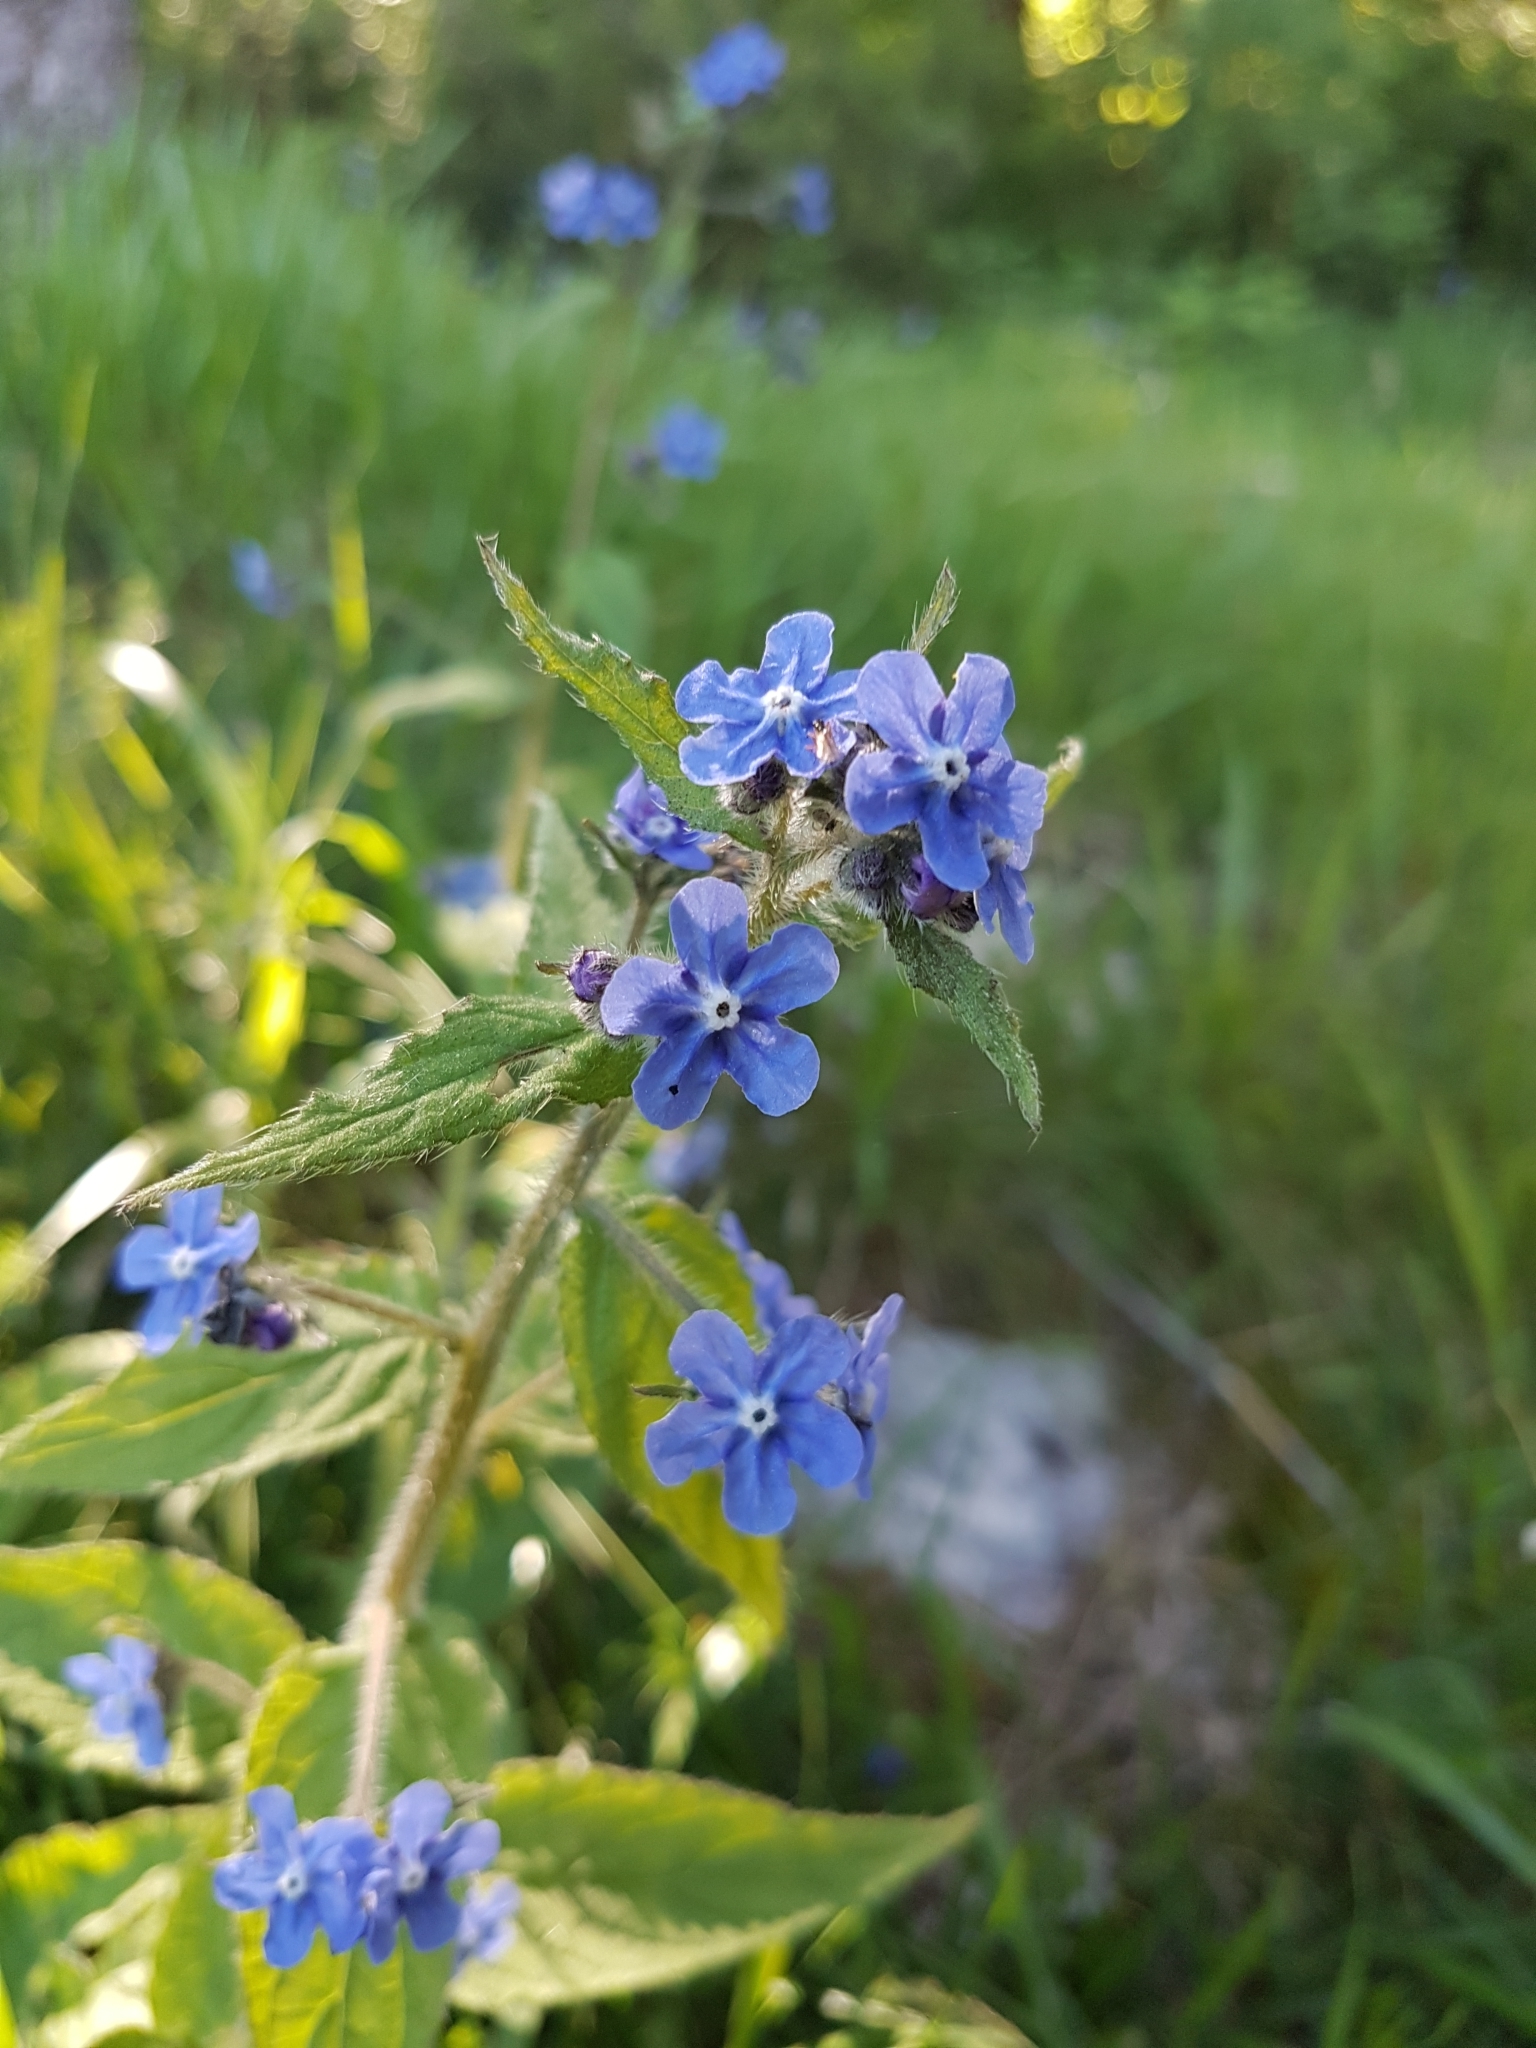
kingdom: Plantae
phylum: Tracheophyta
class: Magnoliopsida
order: Boraginales
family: Boraginaceae
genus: Pentaglottis
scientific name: Pentaglottis sempervirens
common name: Green alkanet
